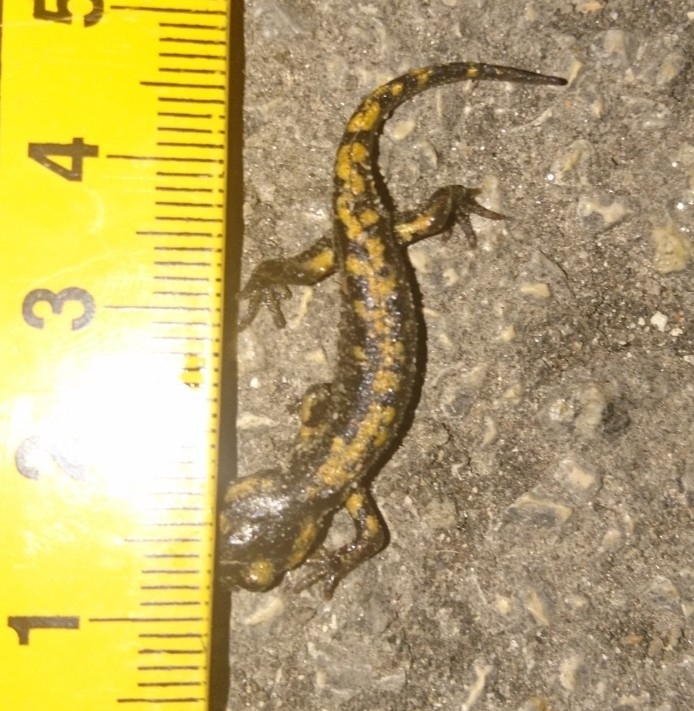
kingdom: Animalia
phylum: Chordata
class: Amphibia
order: Caudata
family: Salamandridae
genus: Salamandra
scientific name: Salamandra salamandra
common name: Fire salamander
